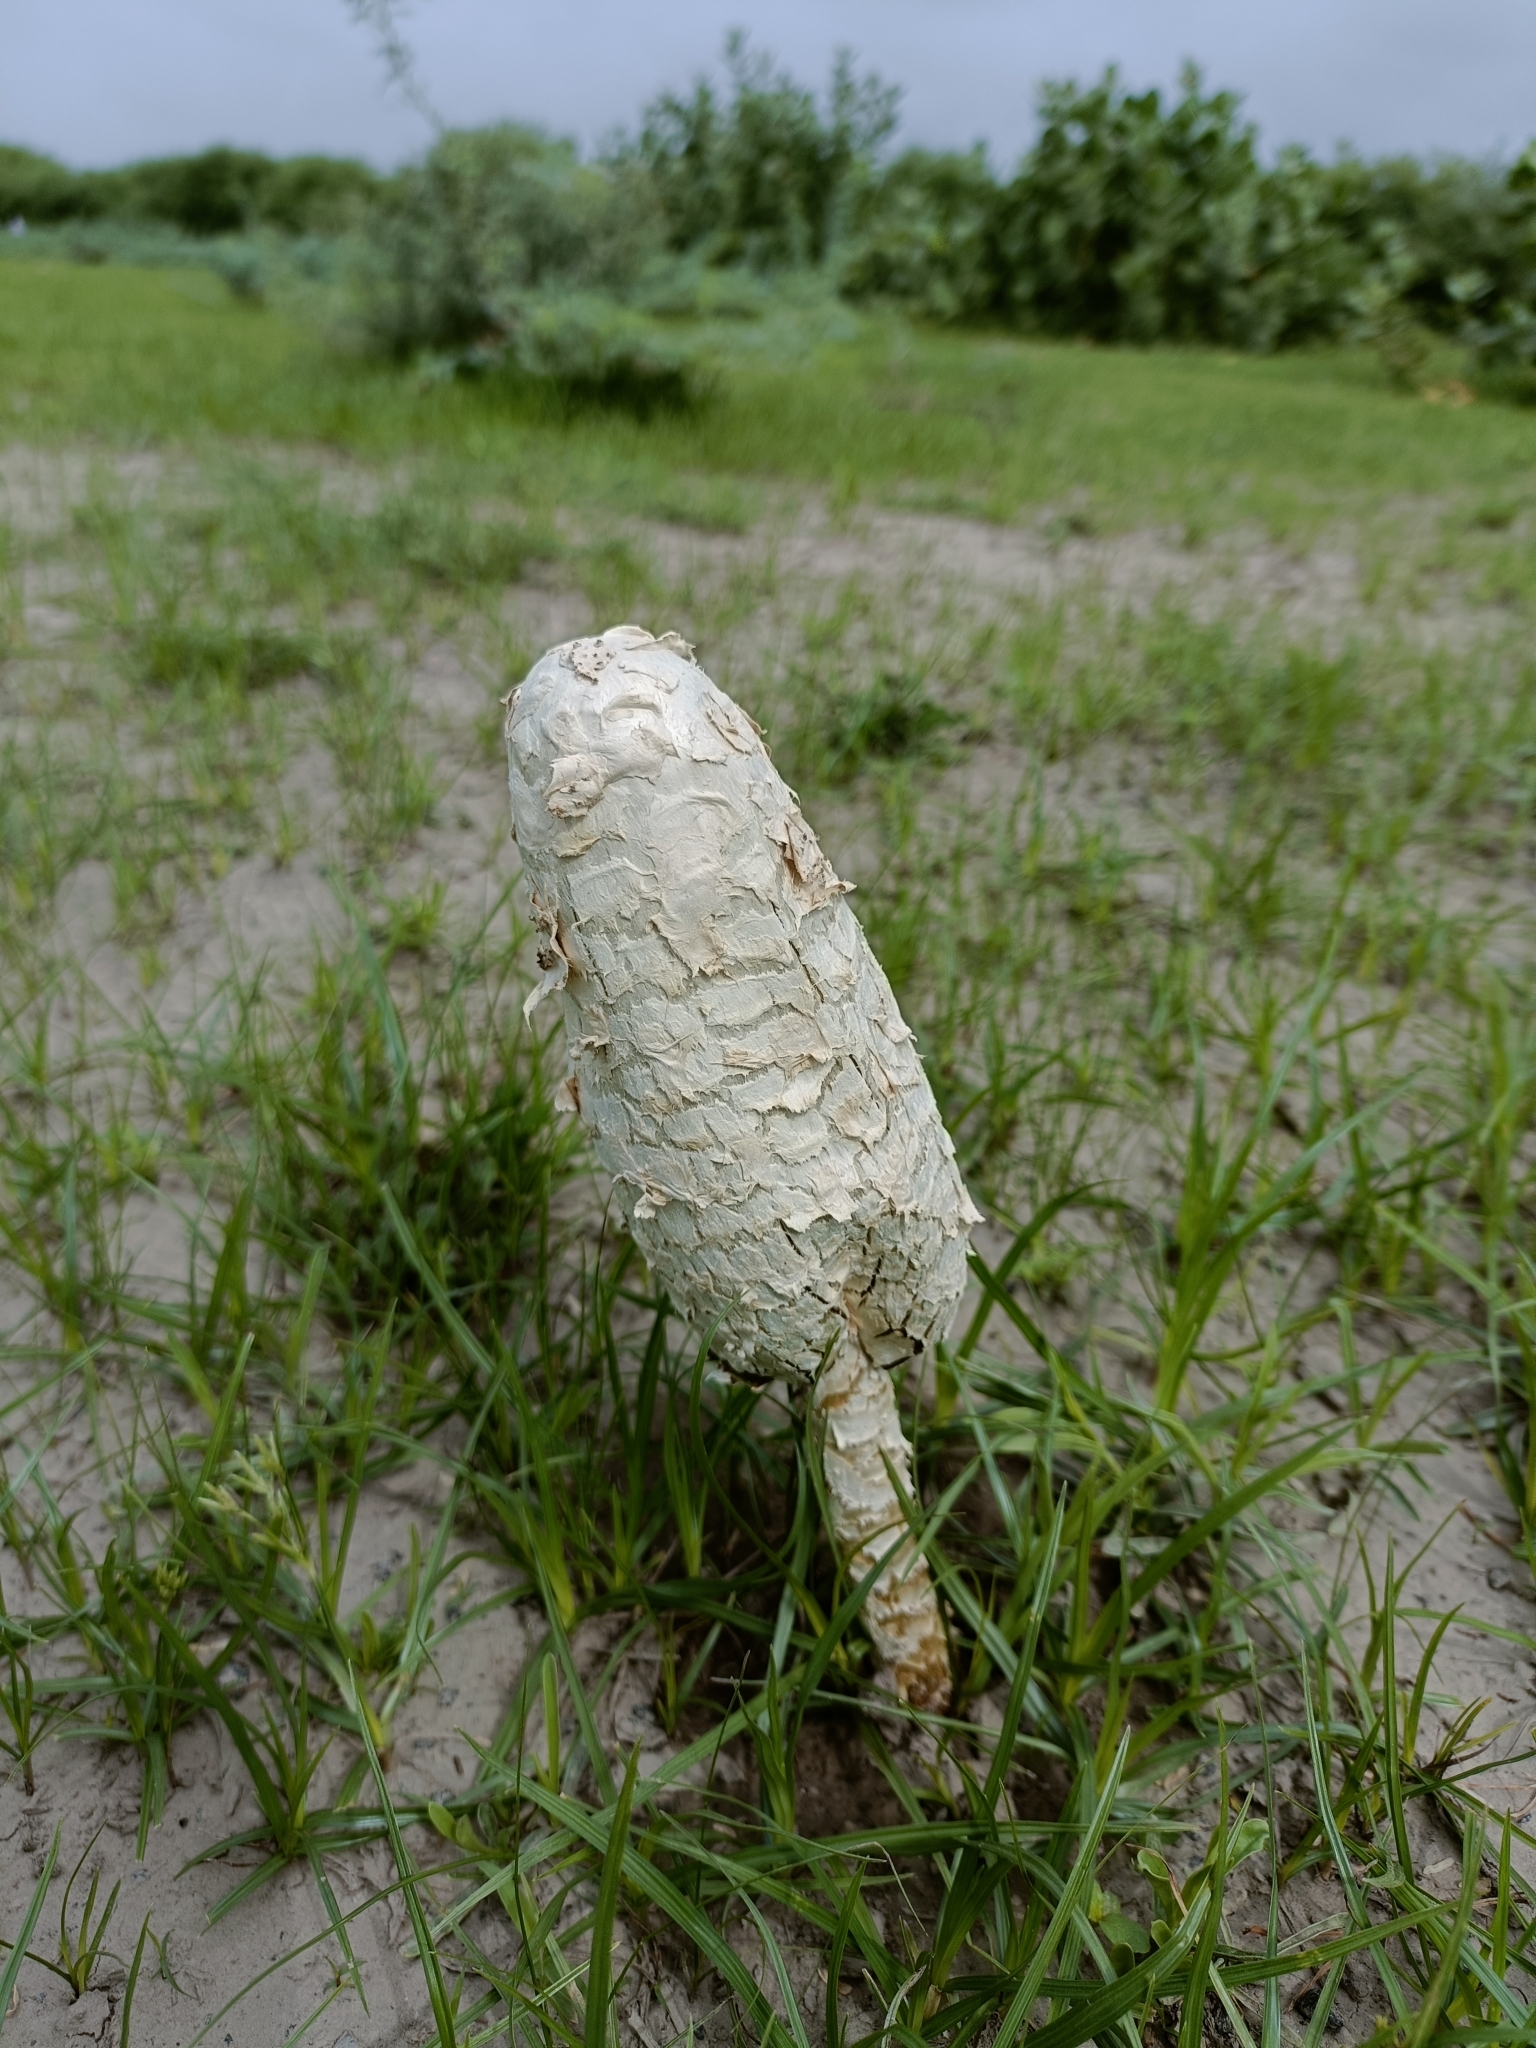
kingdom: Fungi
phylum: Basidiomycota
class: Agaricomycetes
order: Agaricales
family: Agaricaceae
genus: Podaxis
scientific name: Podaxis pistillaris
